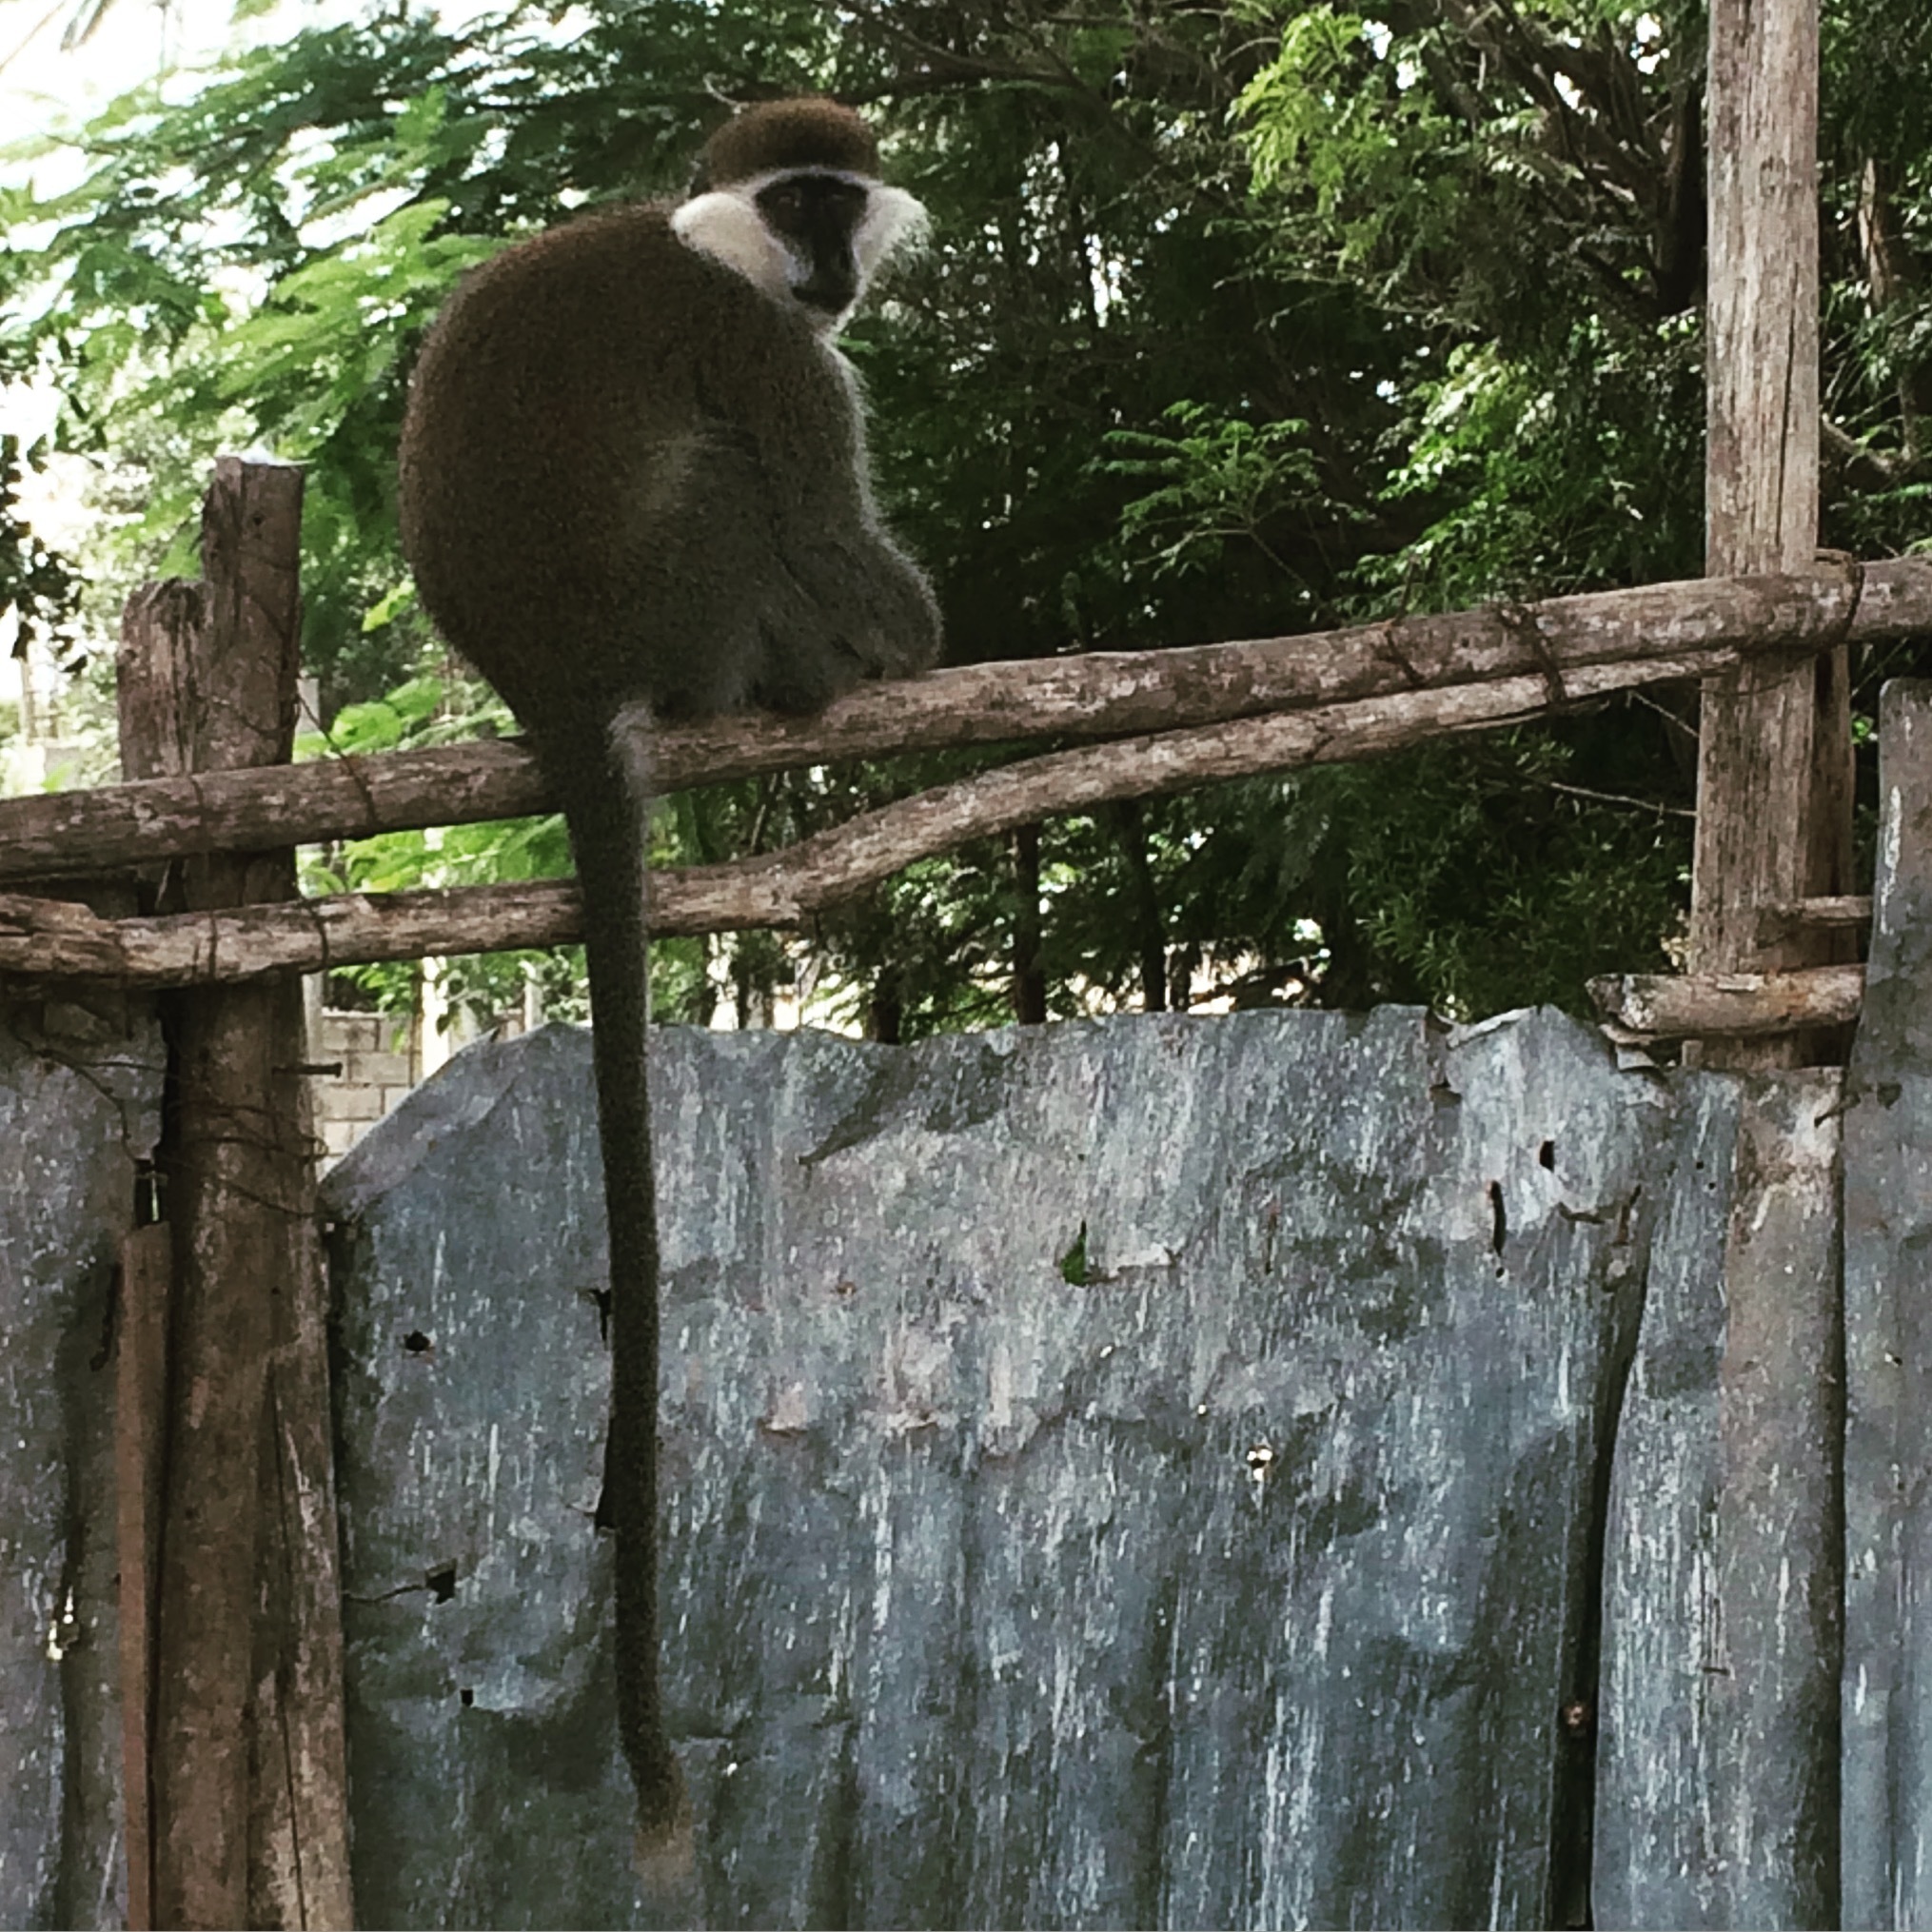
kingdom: Animalia
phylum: Chordata
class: Mammalia
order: Primates
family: Cercopithecidae
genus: Chlorocebus
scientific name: Chlorocebus aethiops
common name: Grivet
